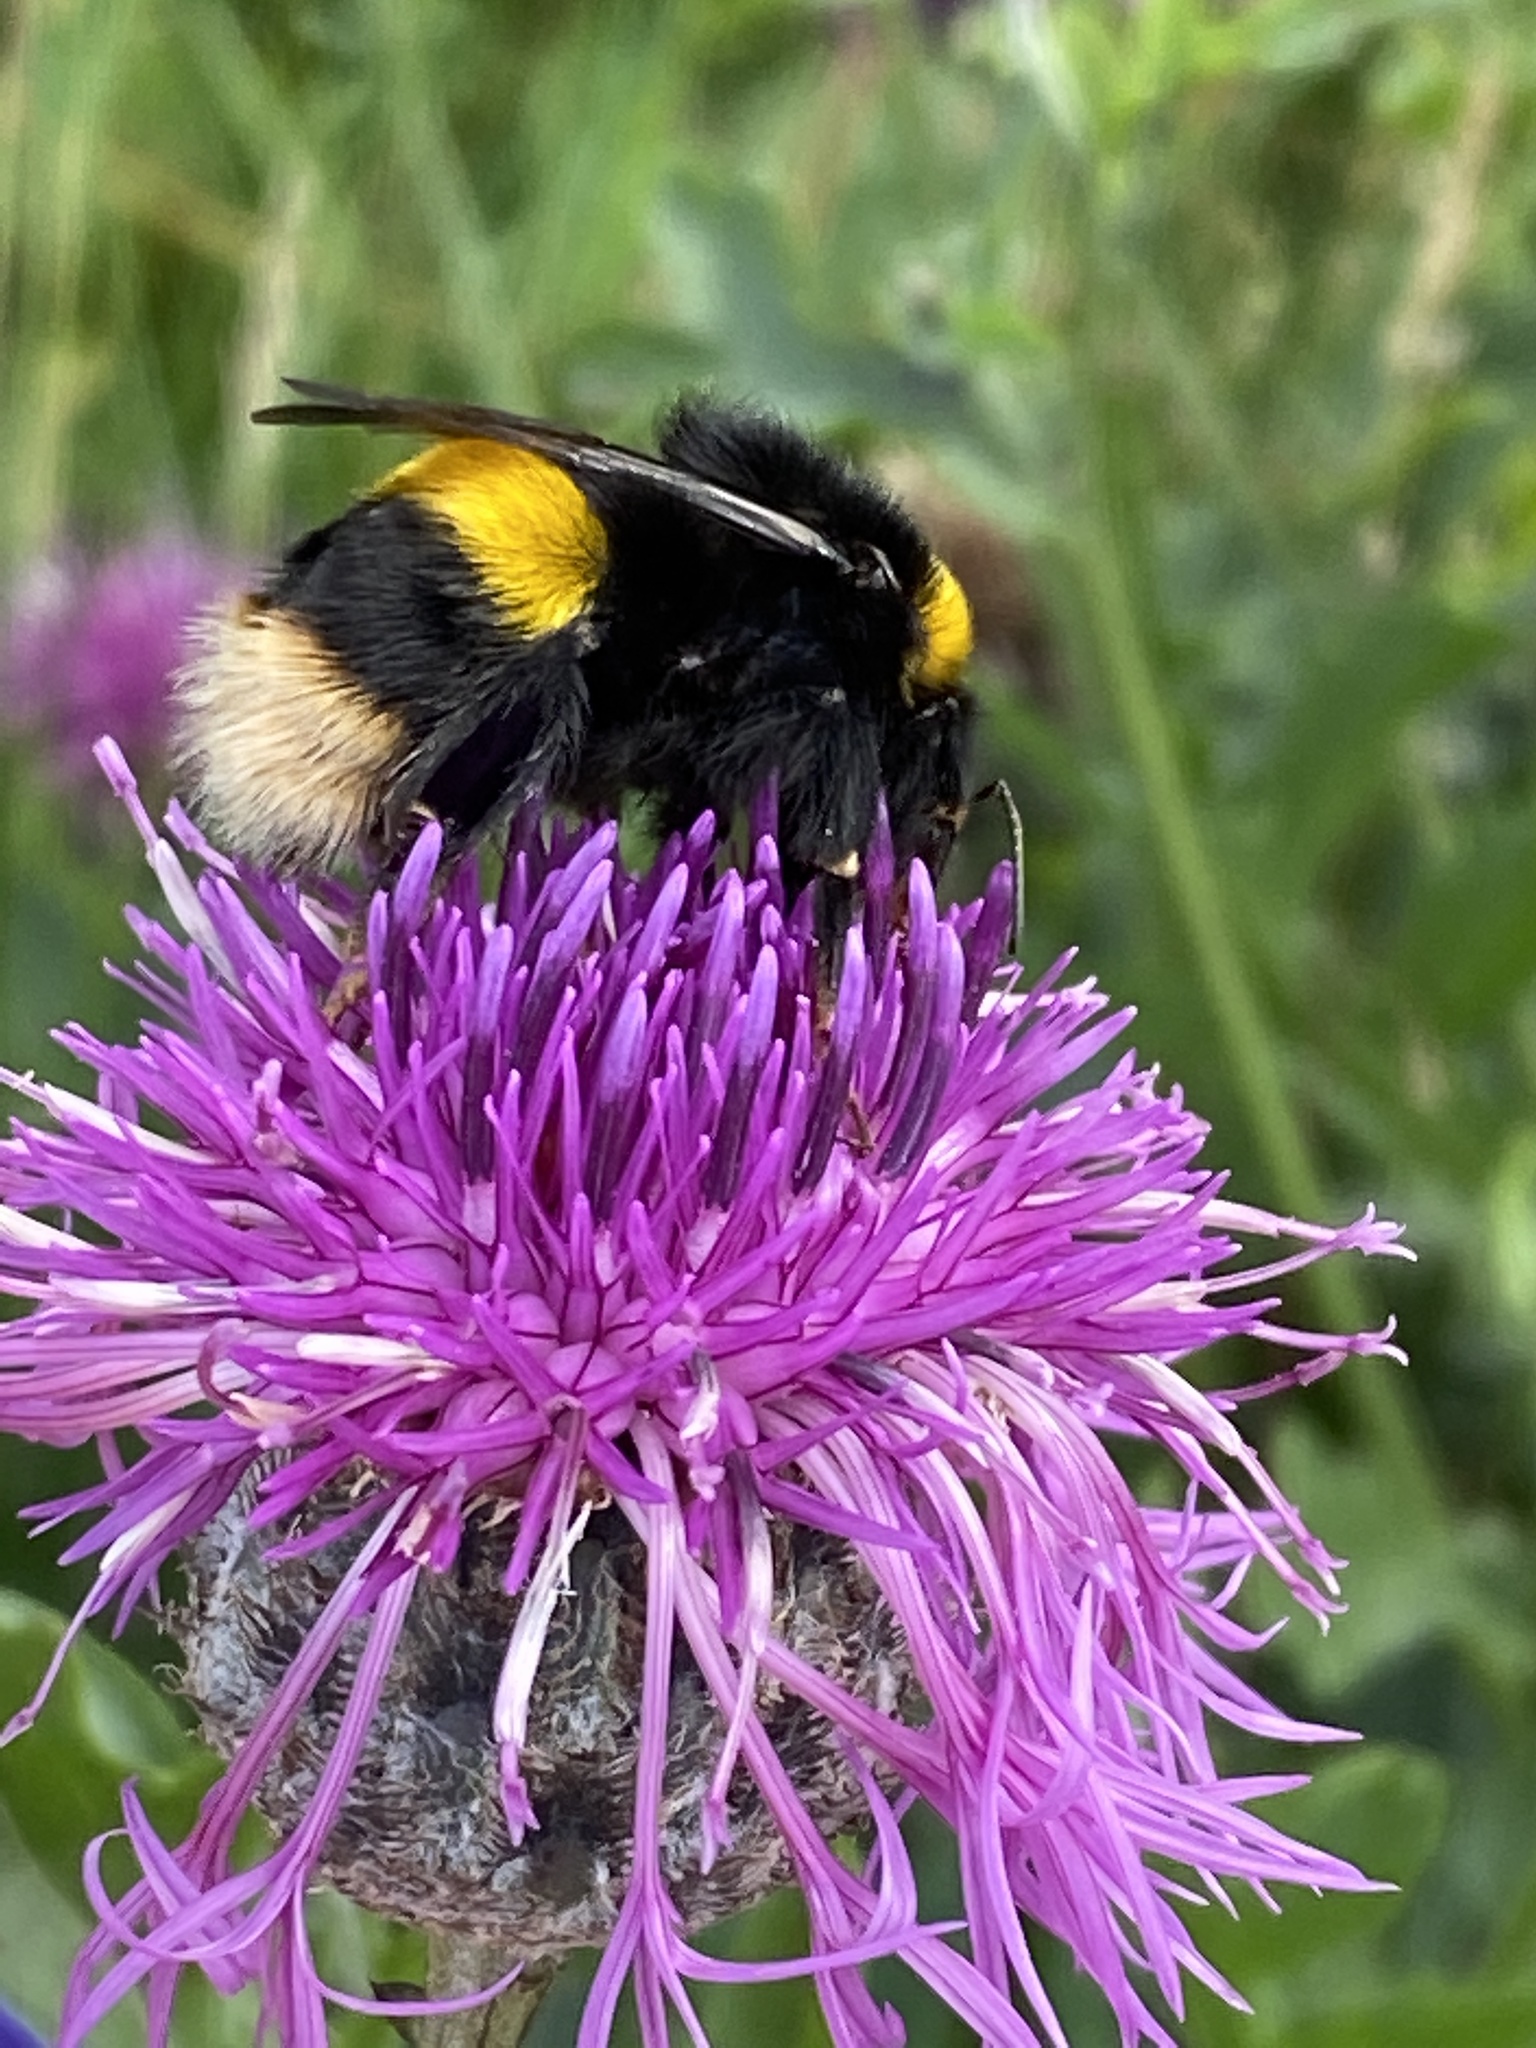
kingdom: Animalia
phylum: Arthropoda
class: Insecta
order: Hymenoptera
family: Apidae
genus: Bombus
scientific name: Bombus terrestris
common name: Buff-tailed bumblebee
